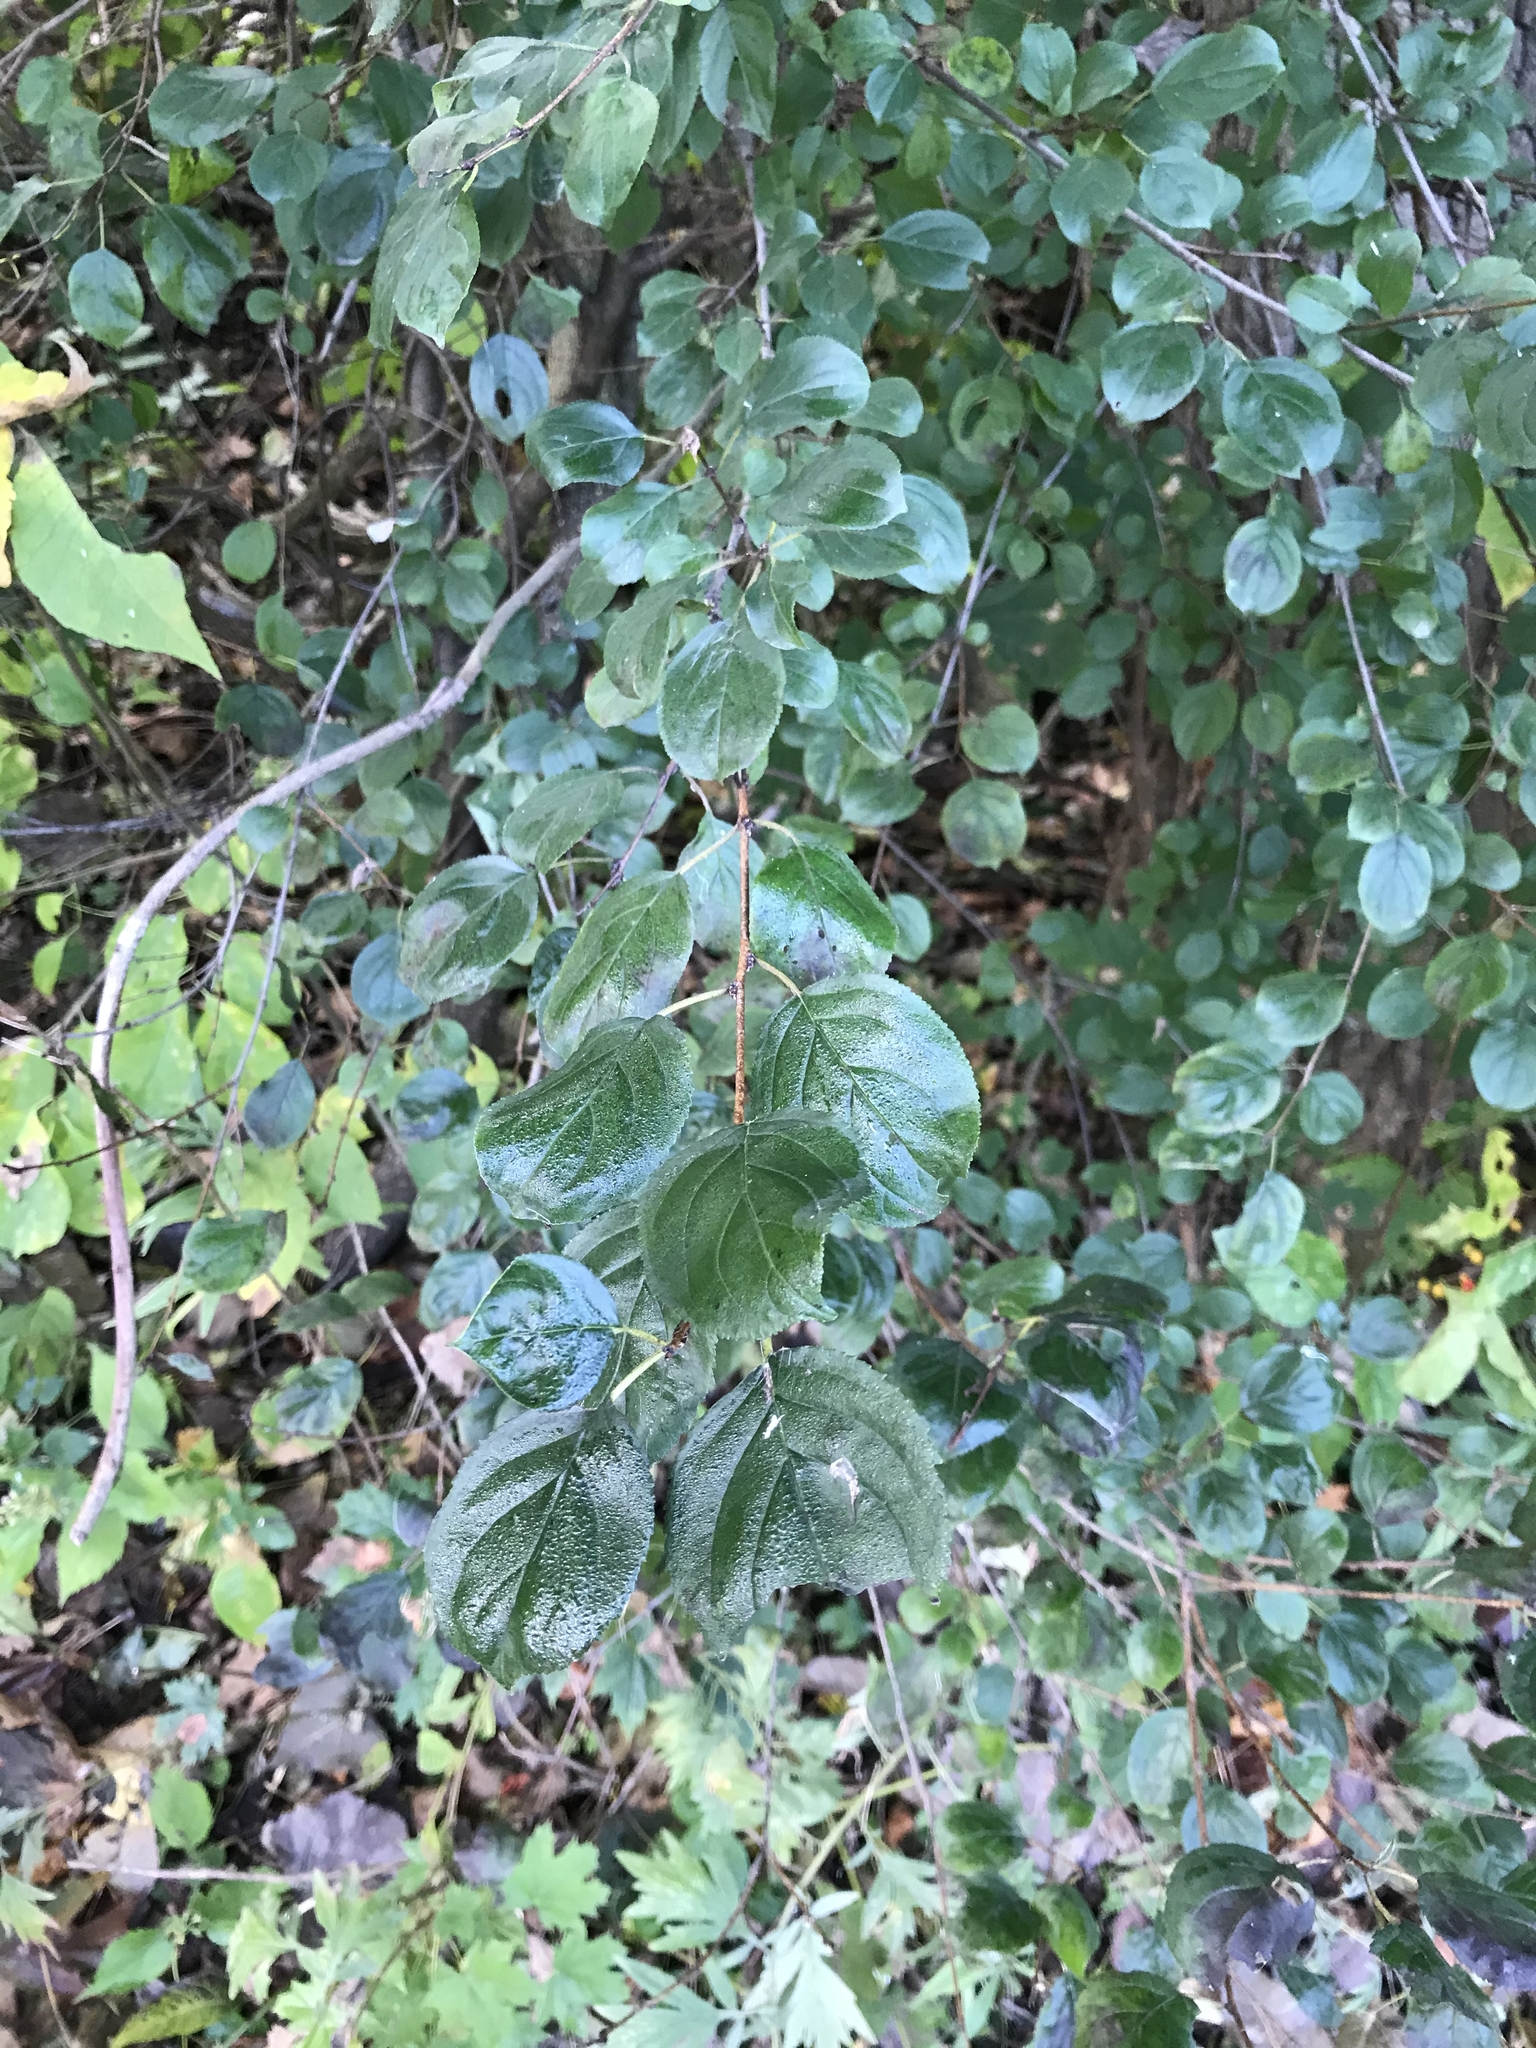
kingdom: Plantae
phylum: Tracheophyta
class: Magnoliopsida
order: Rosales
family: Rhamnaceae
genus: Rhamnus
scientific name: Rhamnus cathartica
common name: Common buckthorn
